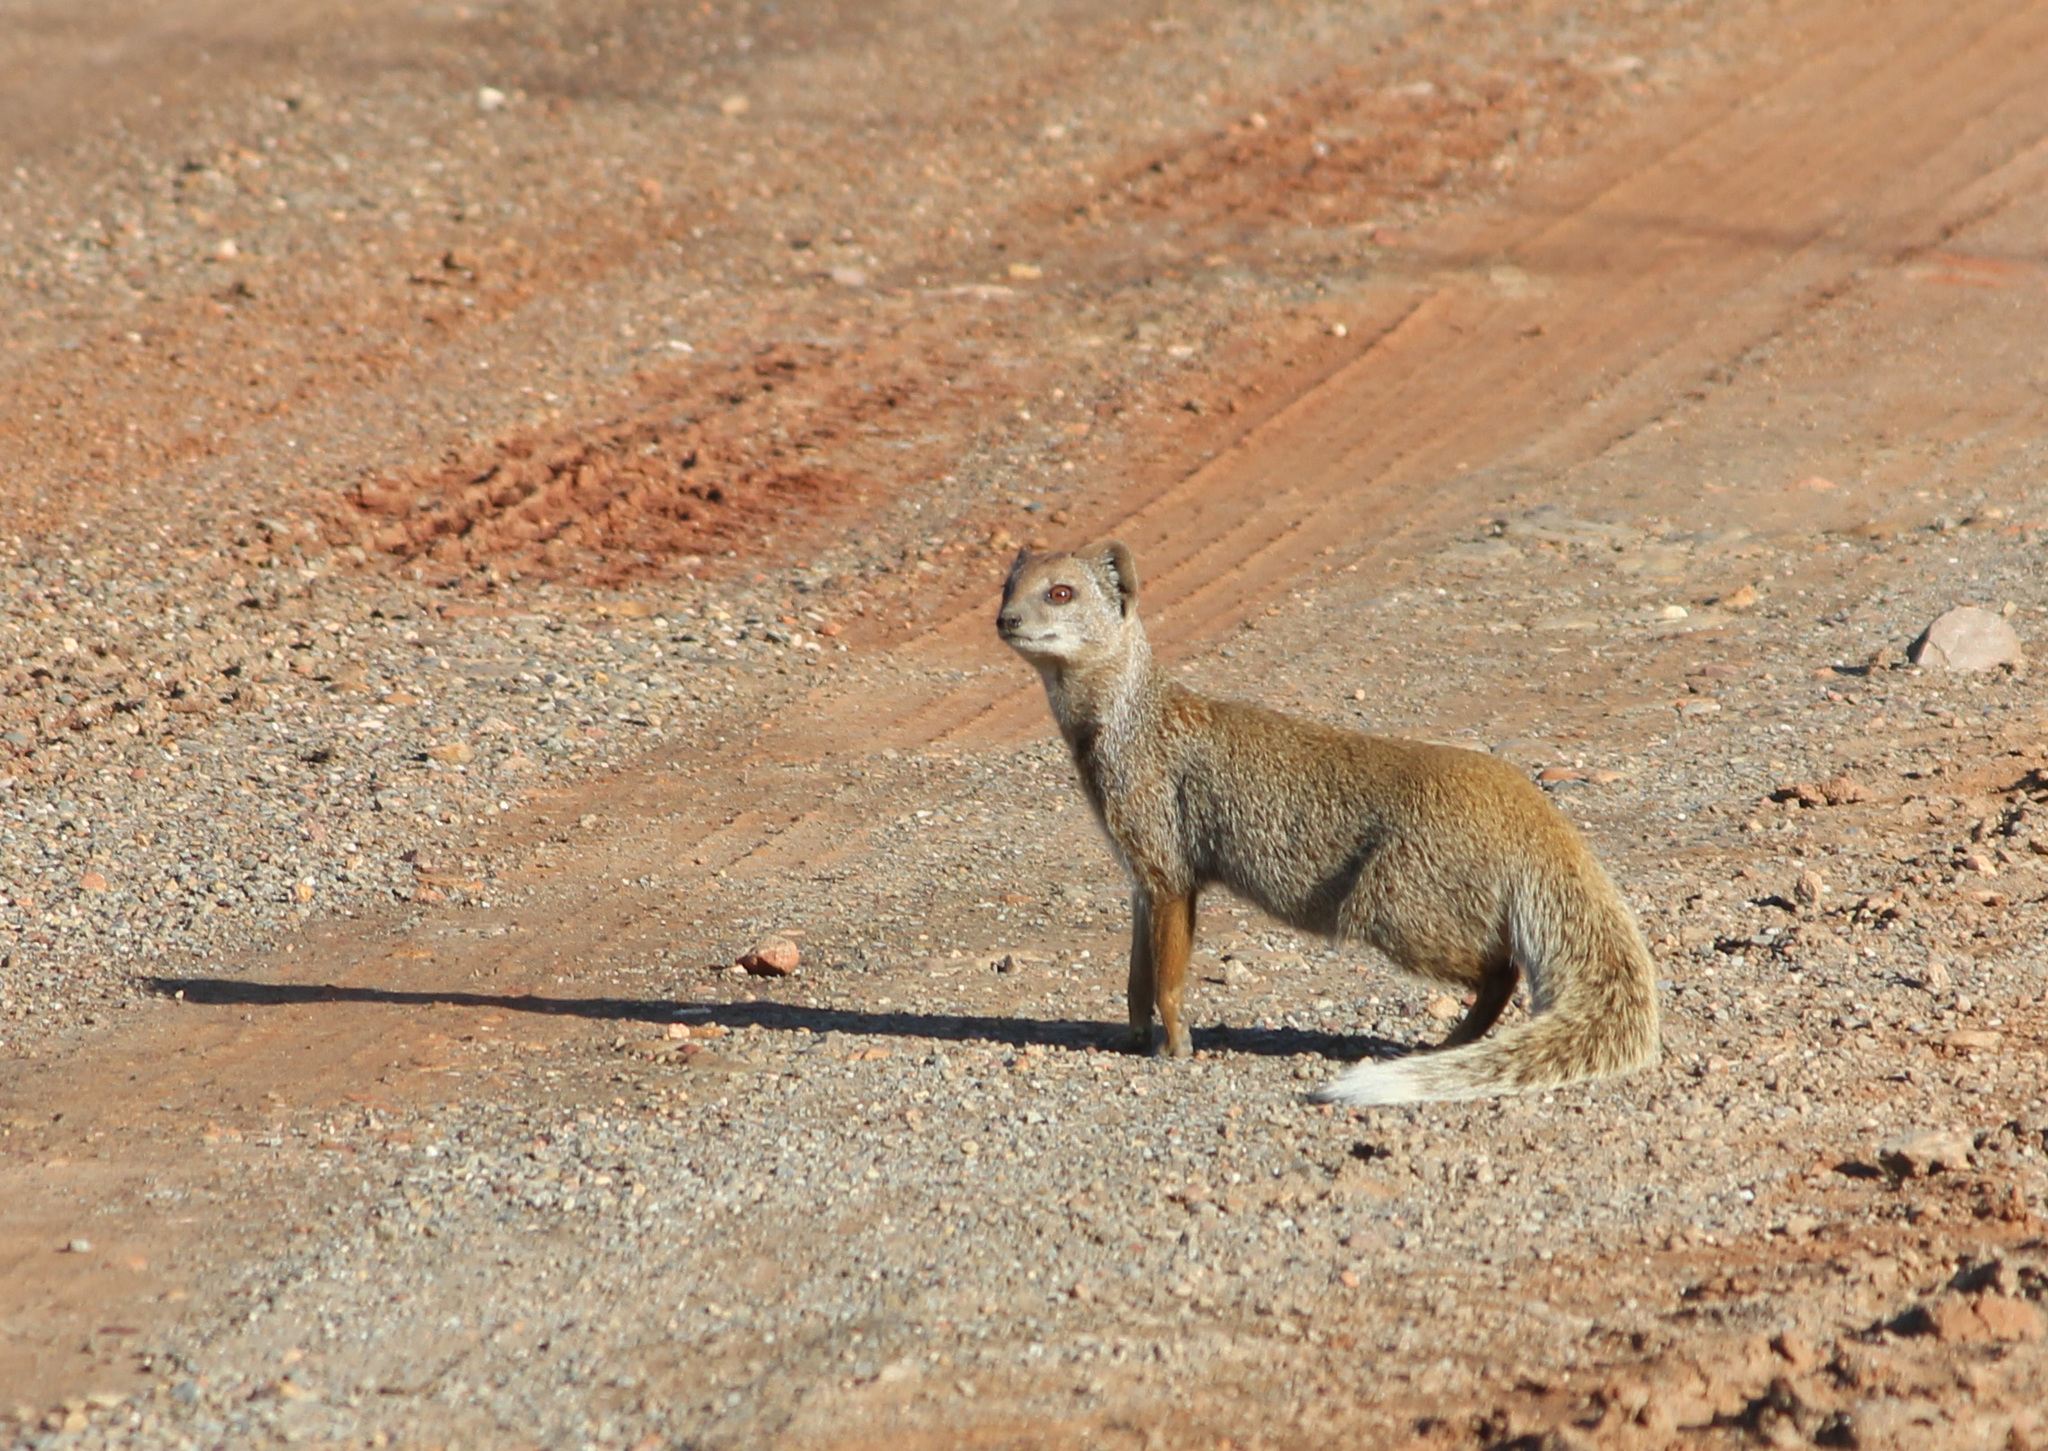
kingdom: Animalia
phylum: Chordata
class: Mammalia
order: Carnivora
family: Herpestidae
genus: Cynictis
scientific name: Cynictis penicillata
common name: Yellow mongoose
